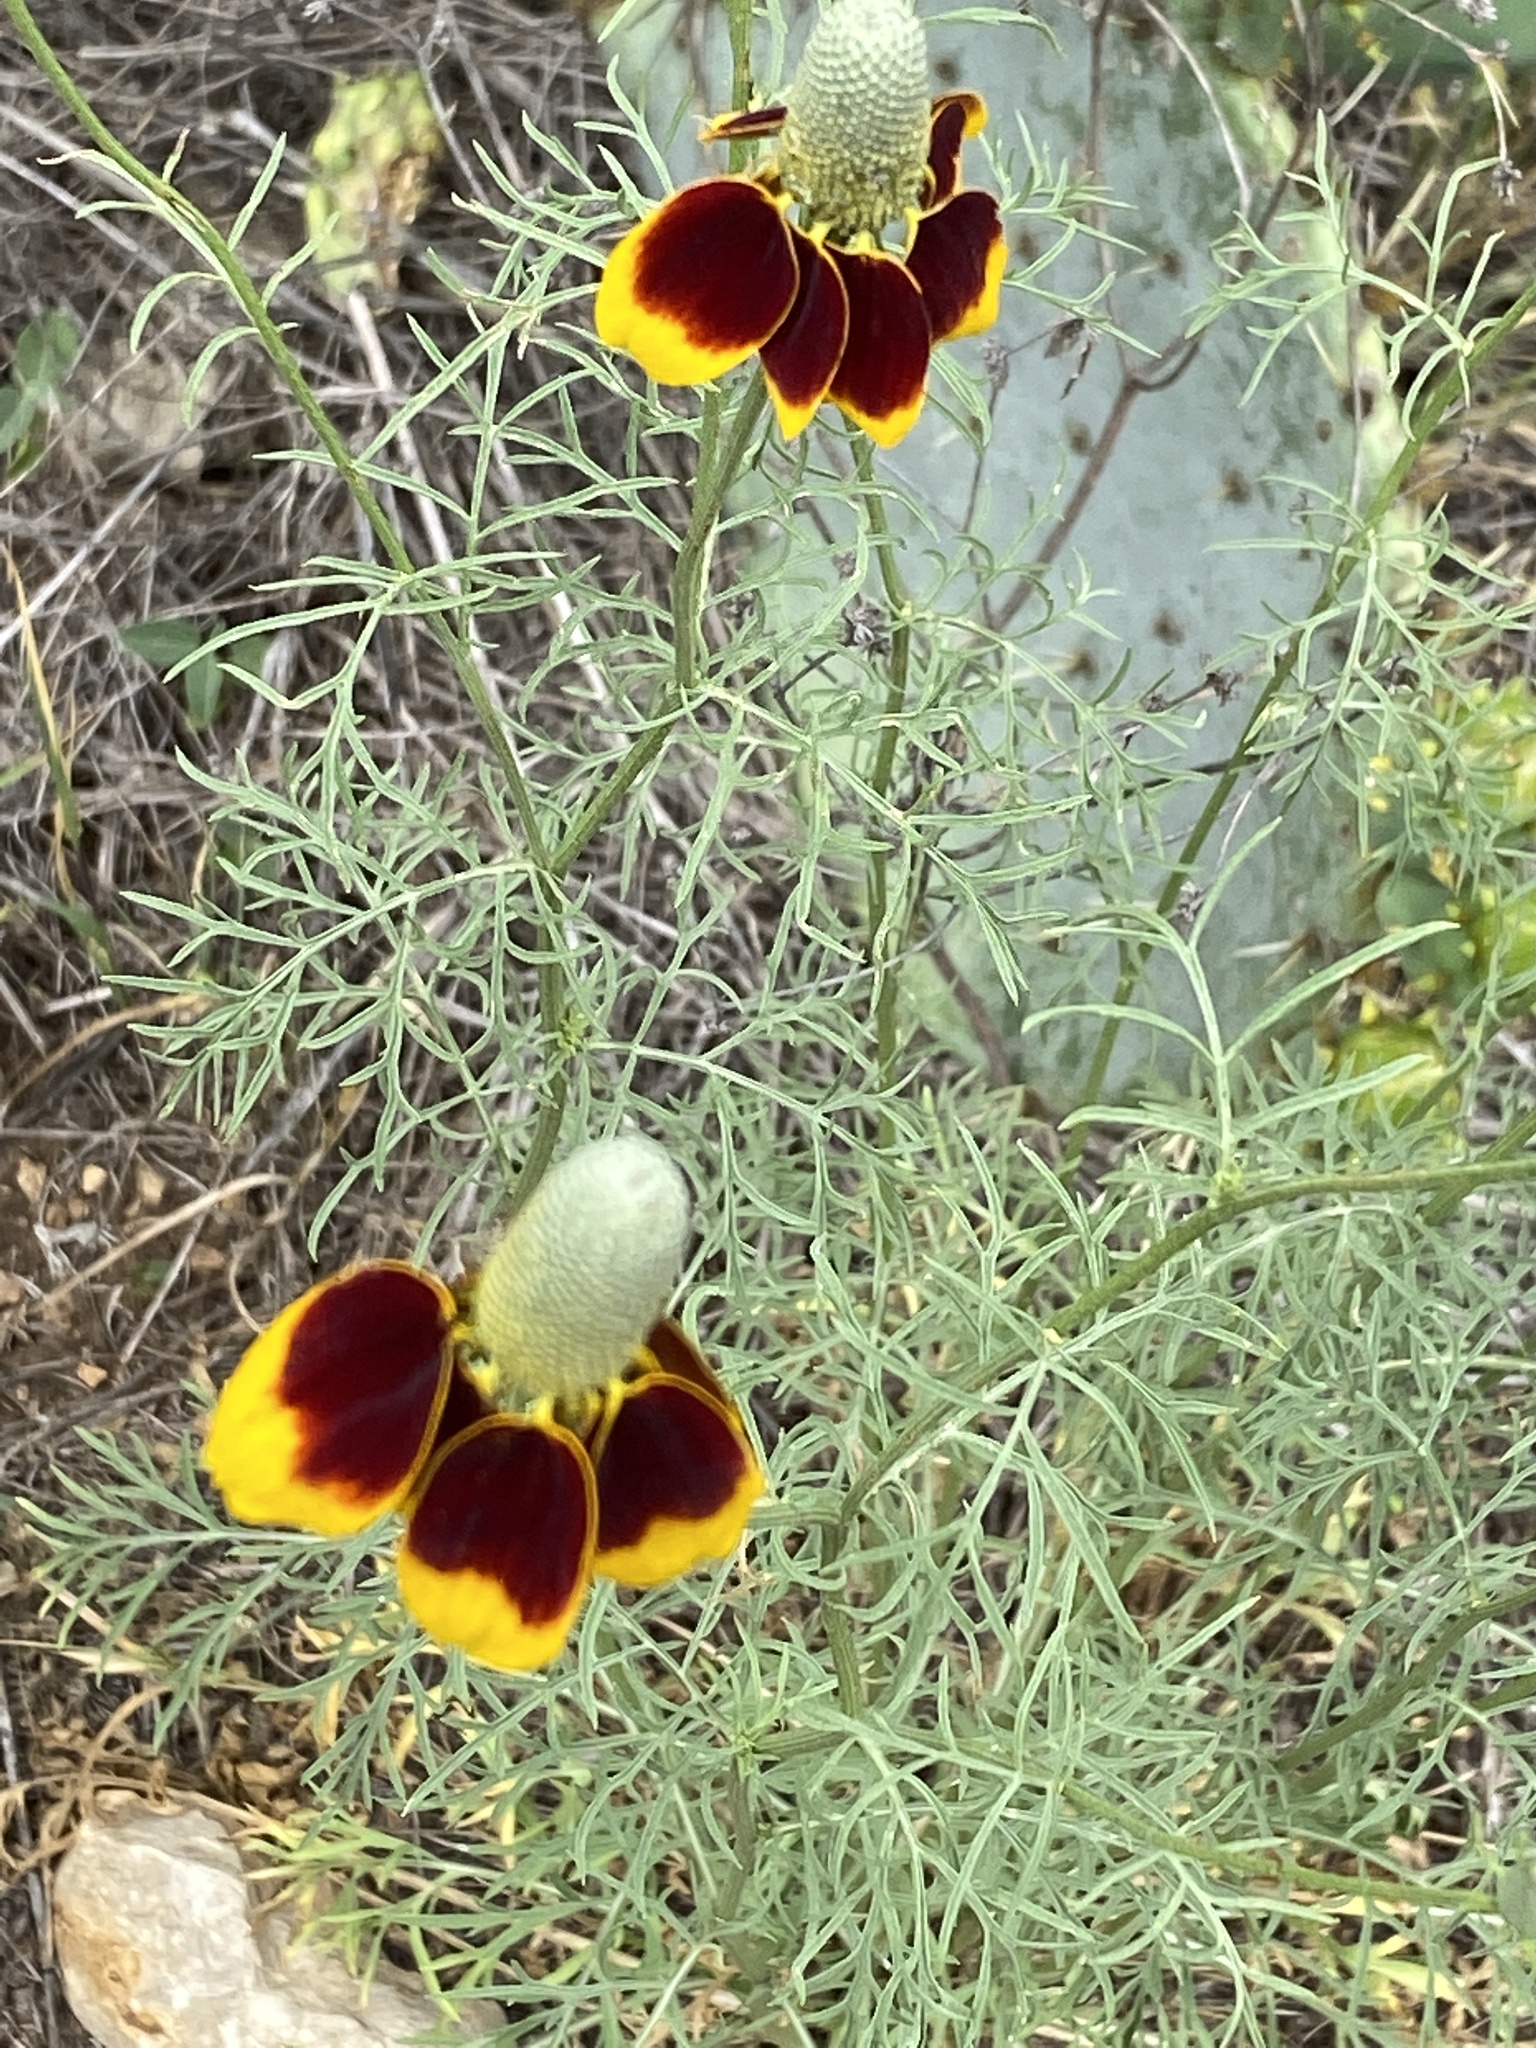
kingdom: Plantae
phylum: Tracheophyta
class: Magnoliopsida
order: Asterales
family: Asteraceae
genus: Ratibida
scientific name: Ratibida columnifera
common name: Prairie coneflower
